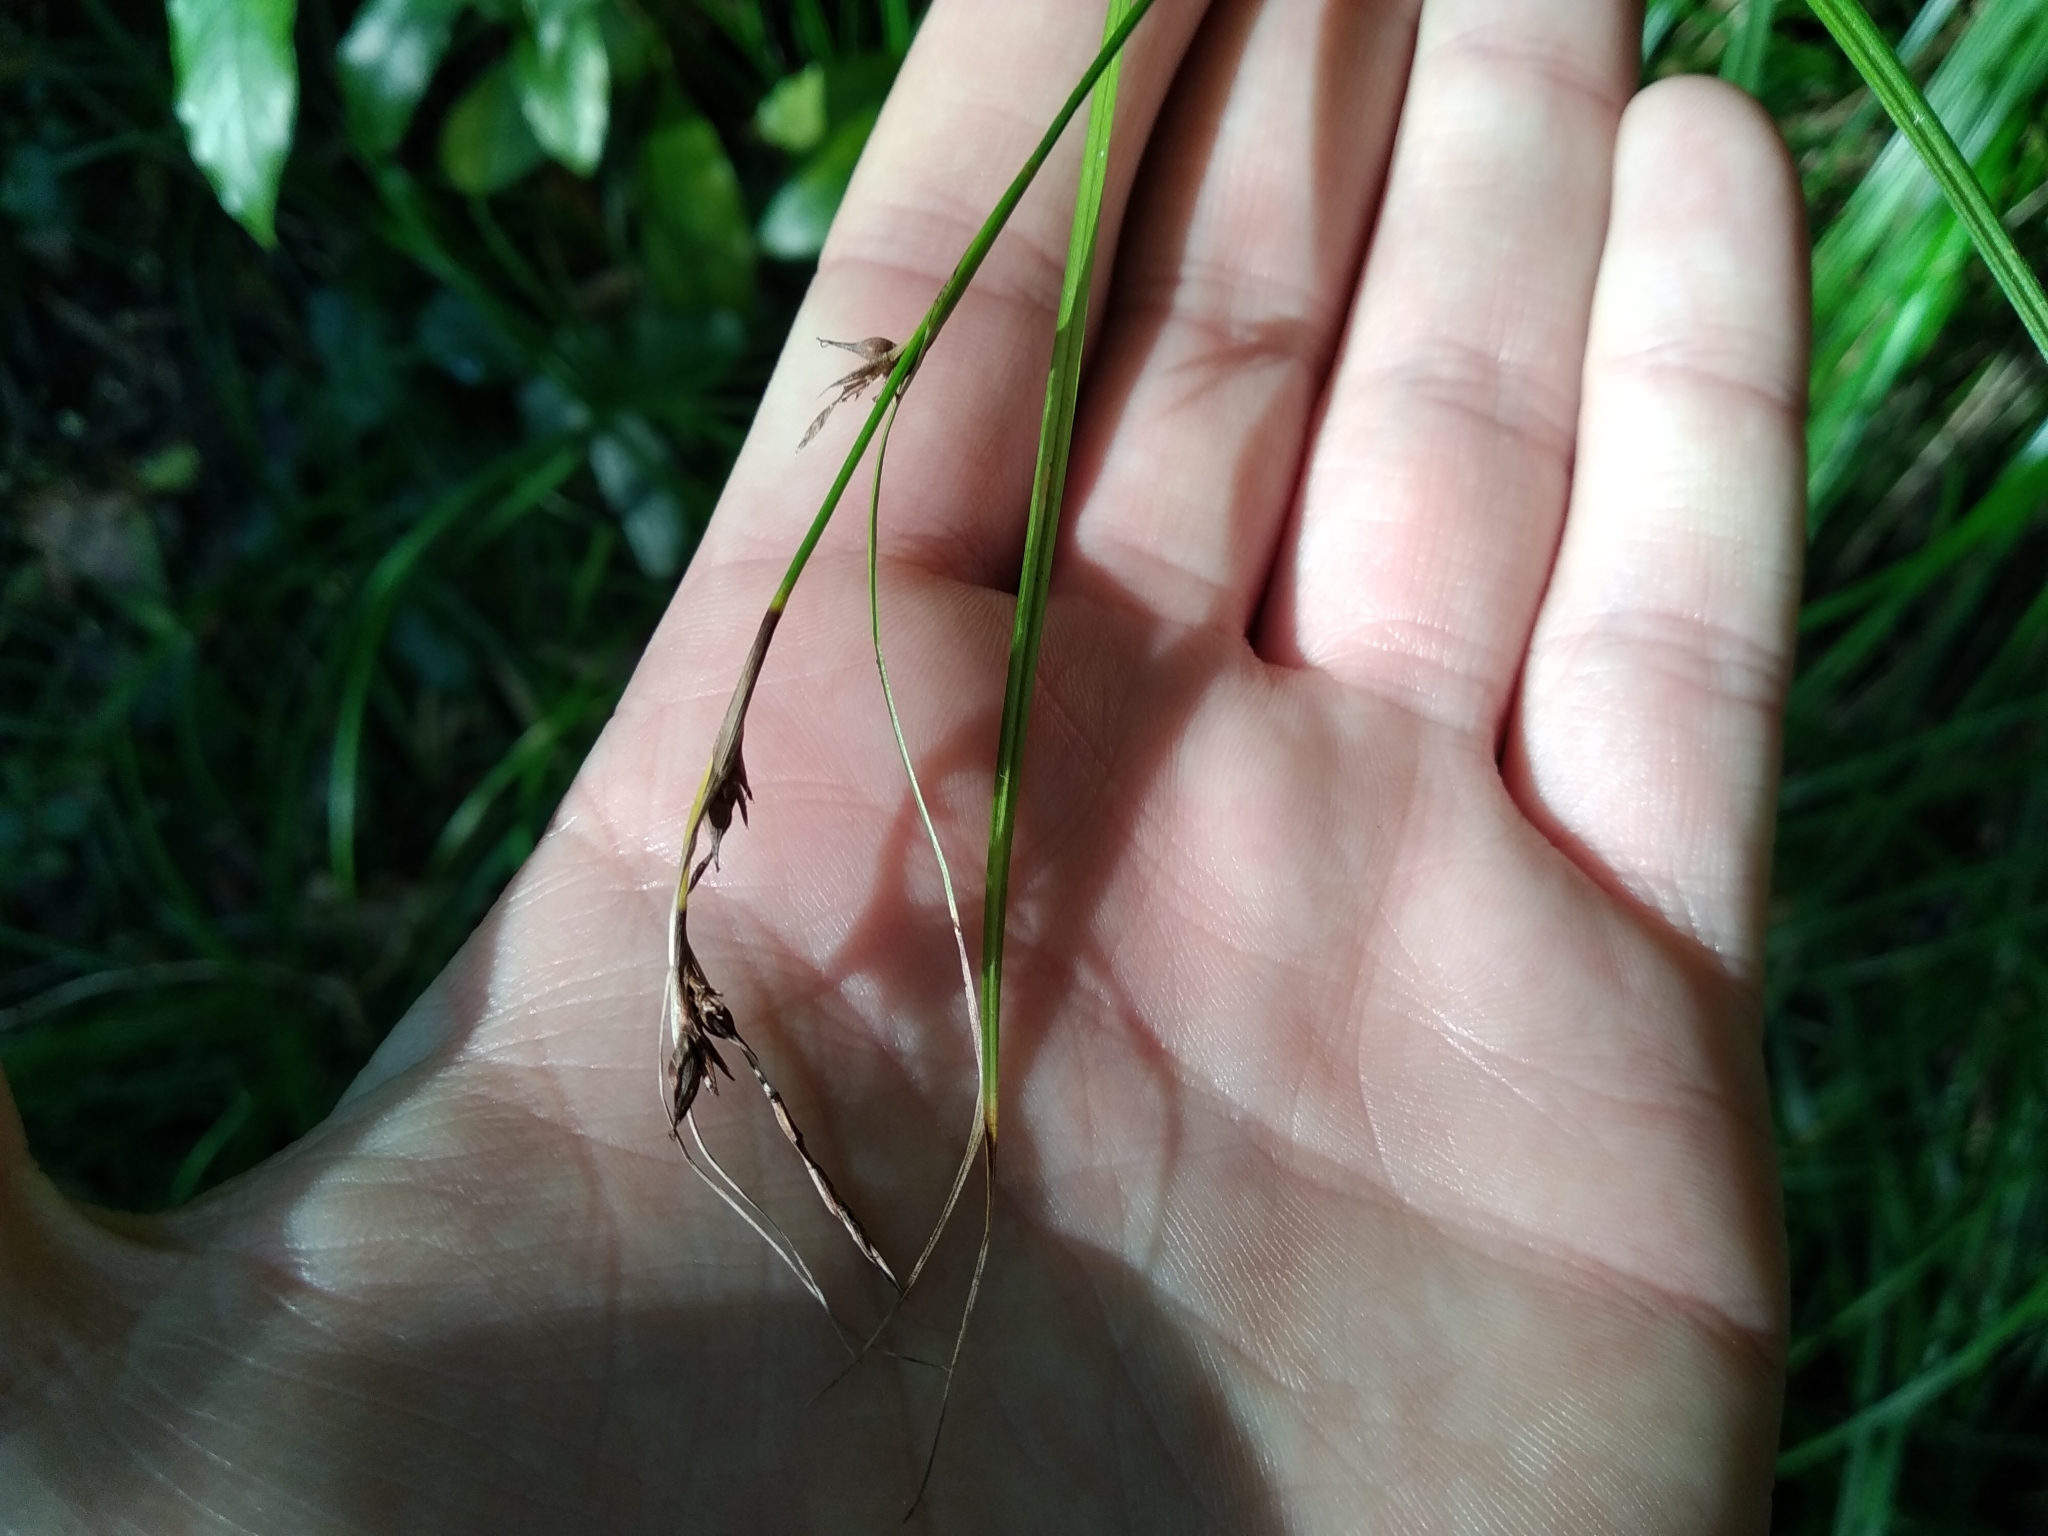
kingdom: Plantae
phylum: Tracheophyta
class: Liliopsida
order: Poales
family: Cyperaceae
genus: Carex
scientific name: Carex uhligii
